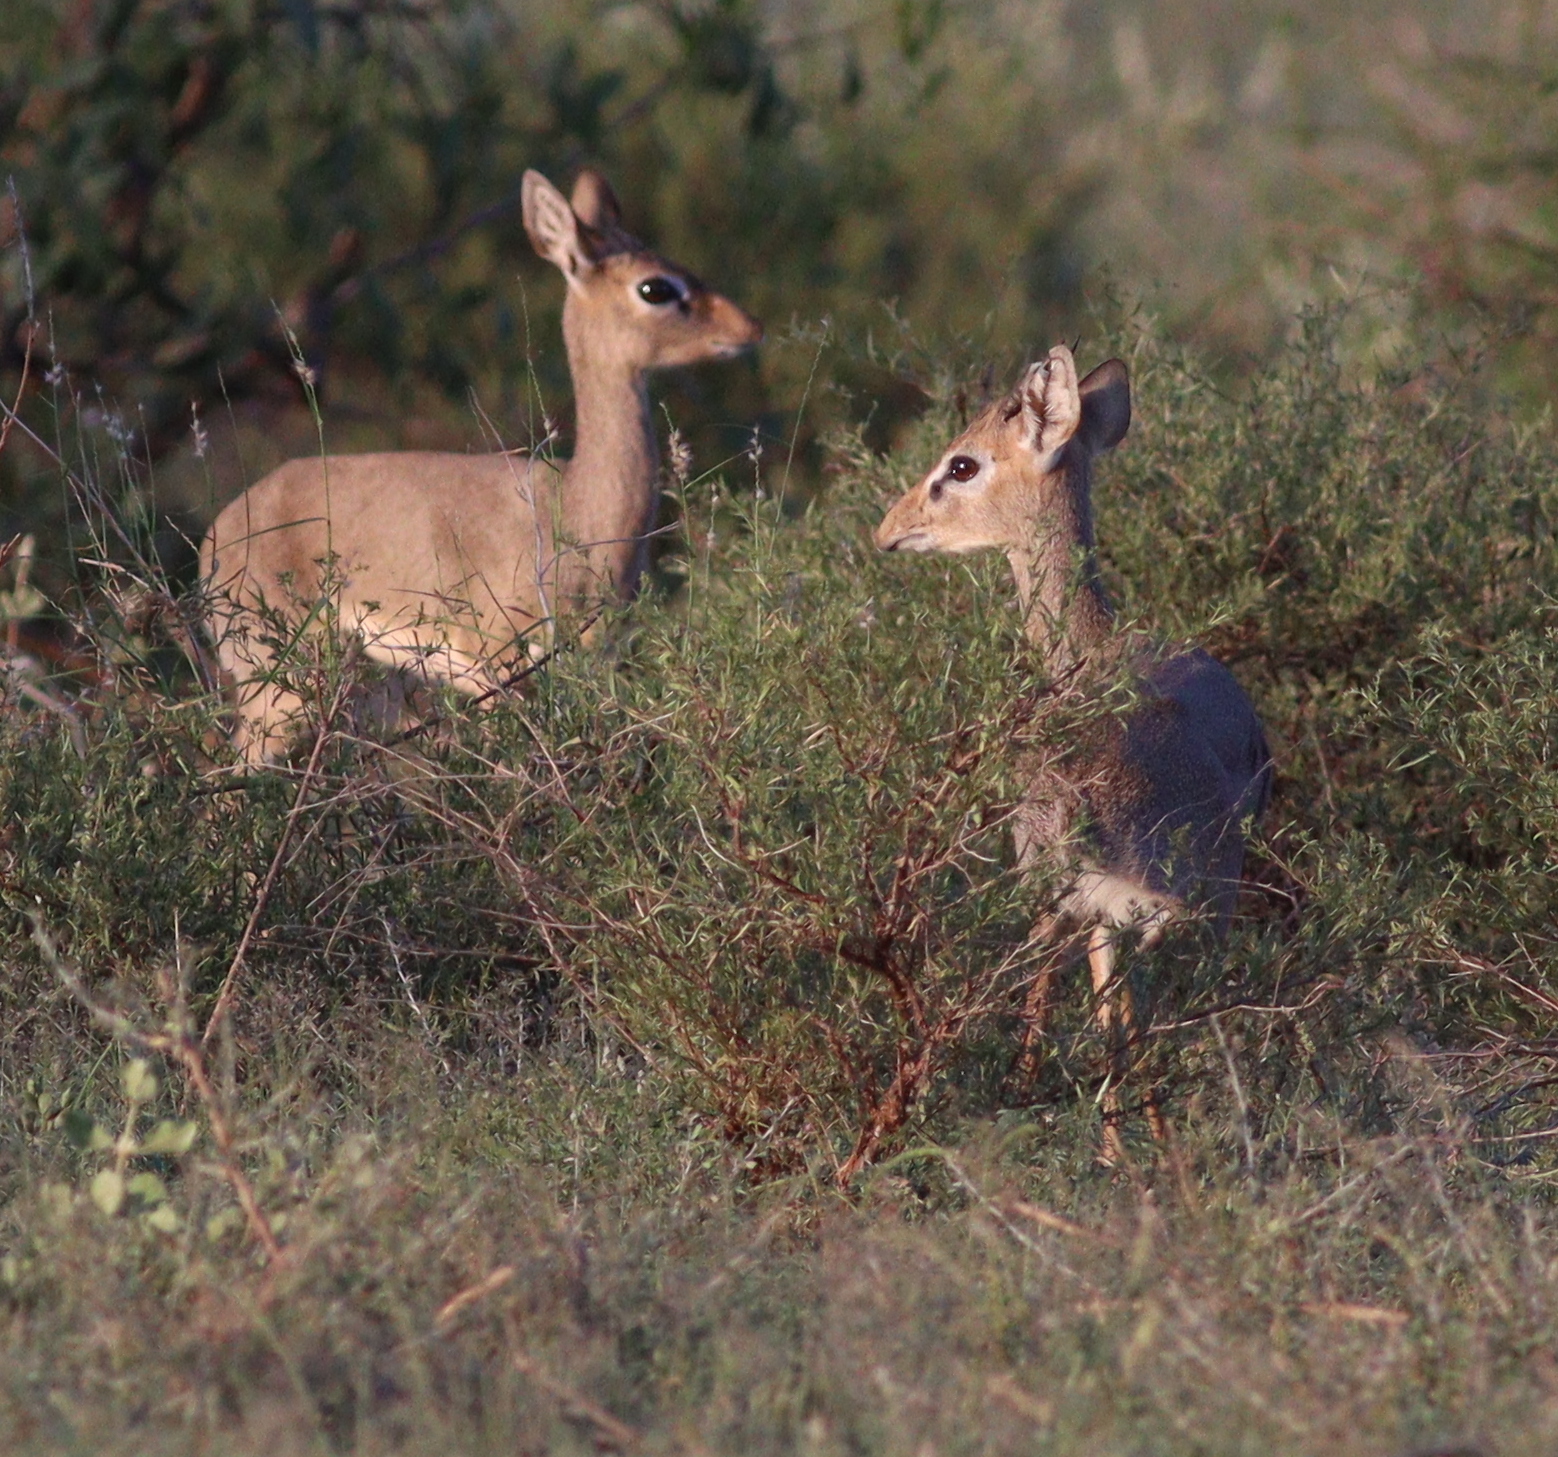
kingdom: Animalia
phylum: Chordata
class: Mammalia
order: Artiodactyla
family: Bovidae
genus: Madoqua
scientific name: Madoqua kirkii
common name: Kirk's dik-dik
